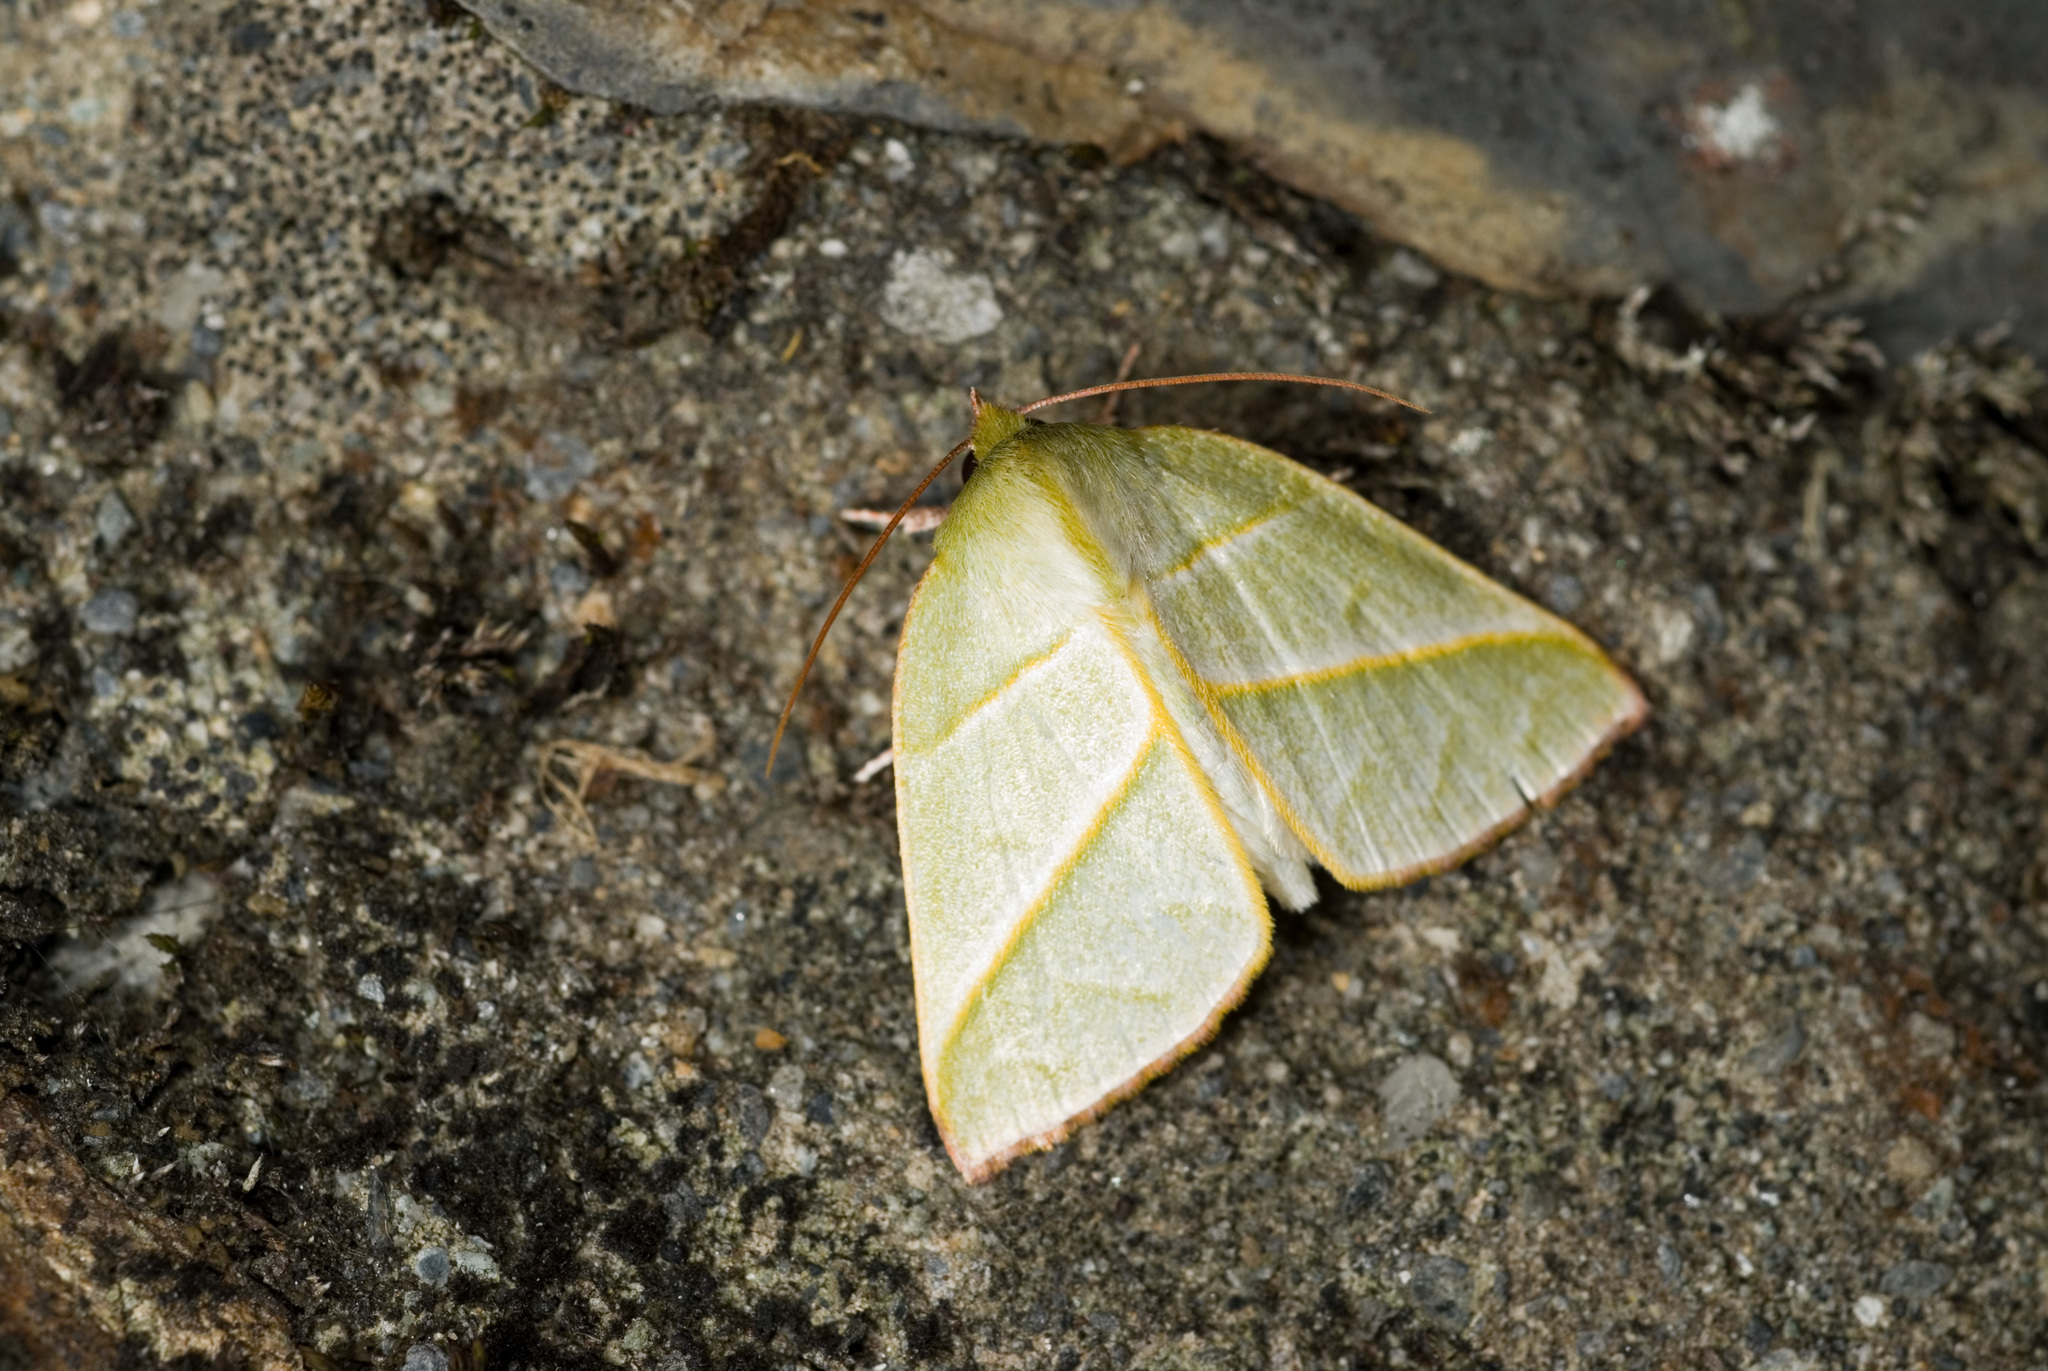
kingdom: Animalia
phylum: Arthropoda
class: Insecta
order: Lepidoptera
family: Nolidae
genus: Hylophilodes
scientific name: Hylophilodes tsukusensis
